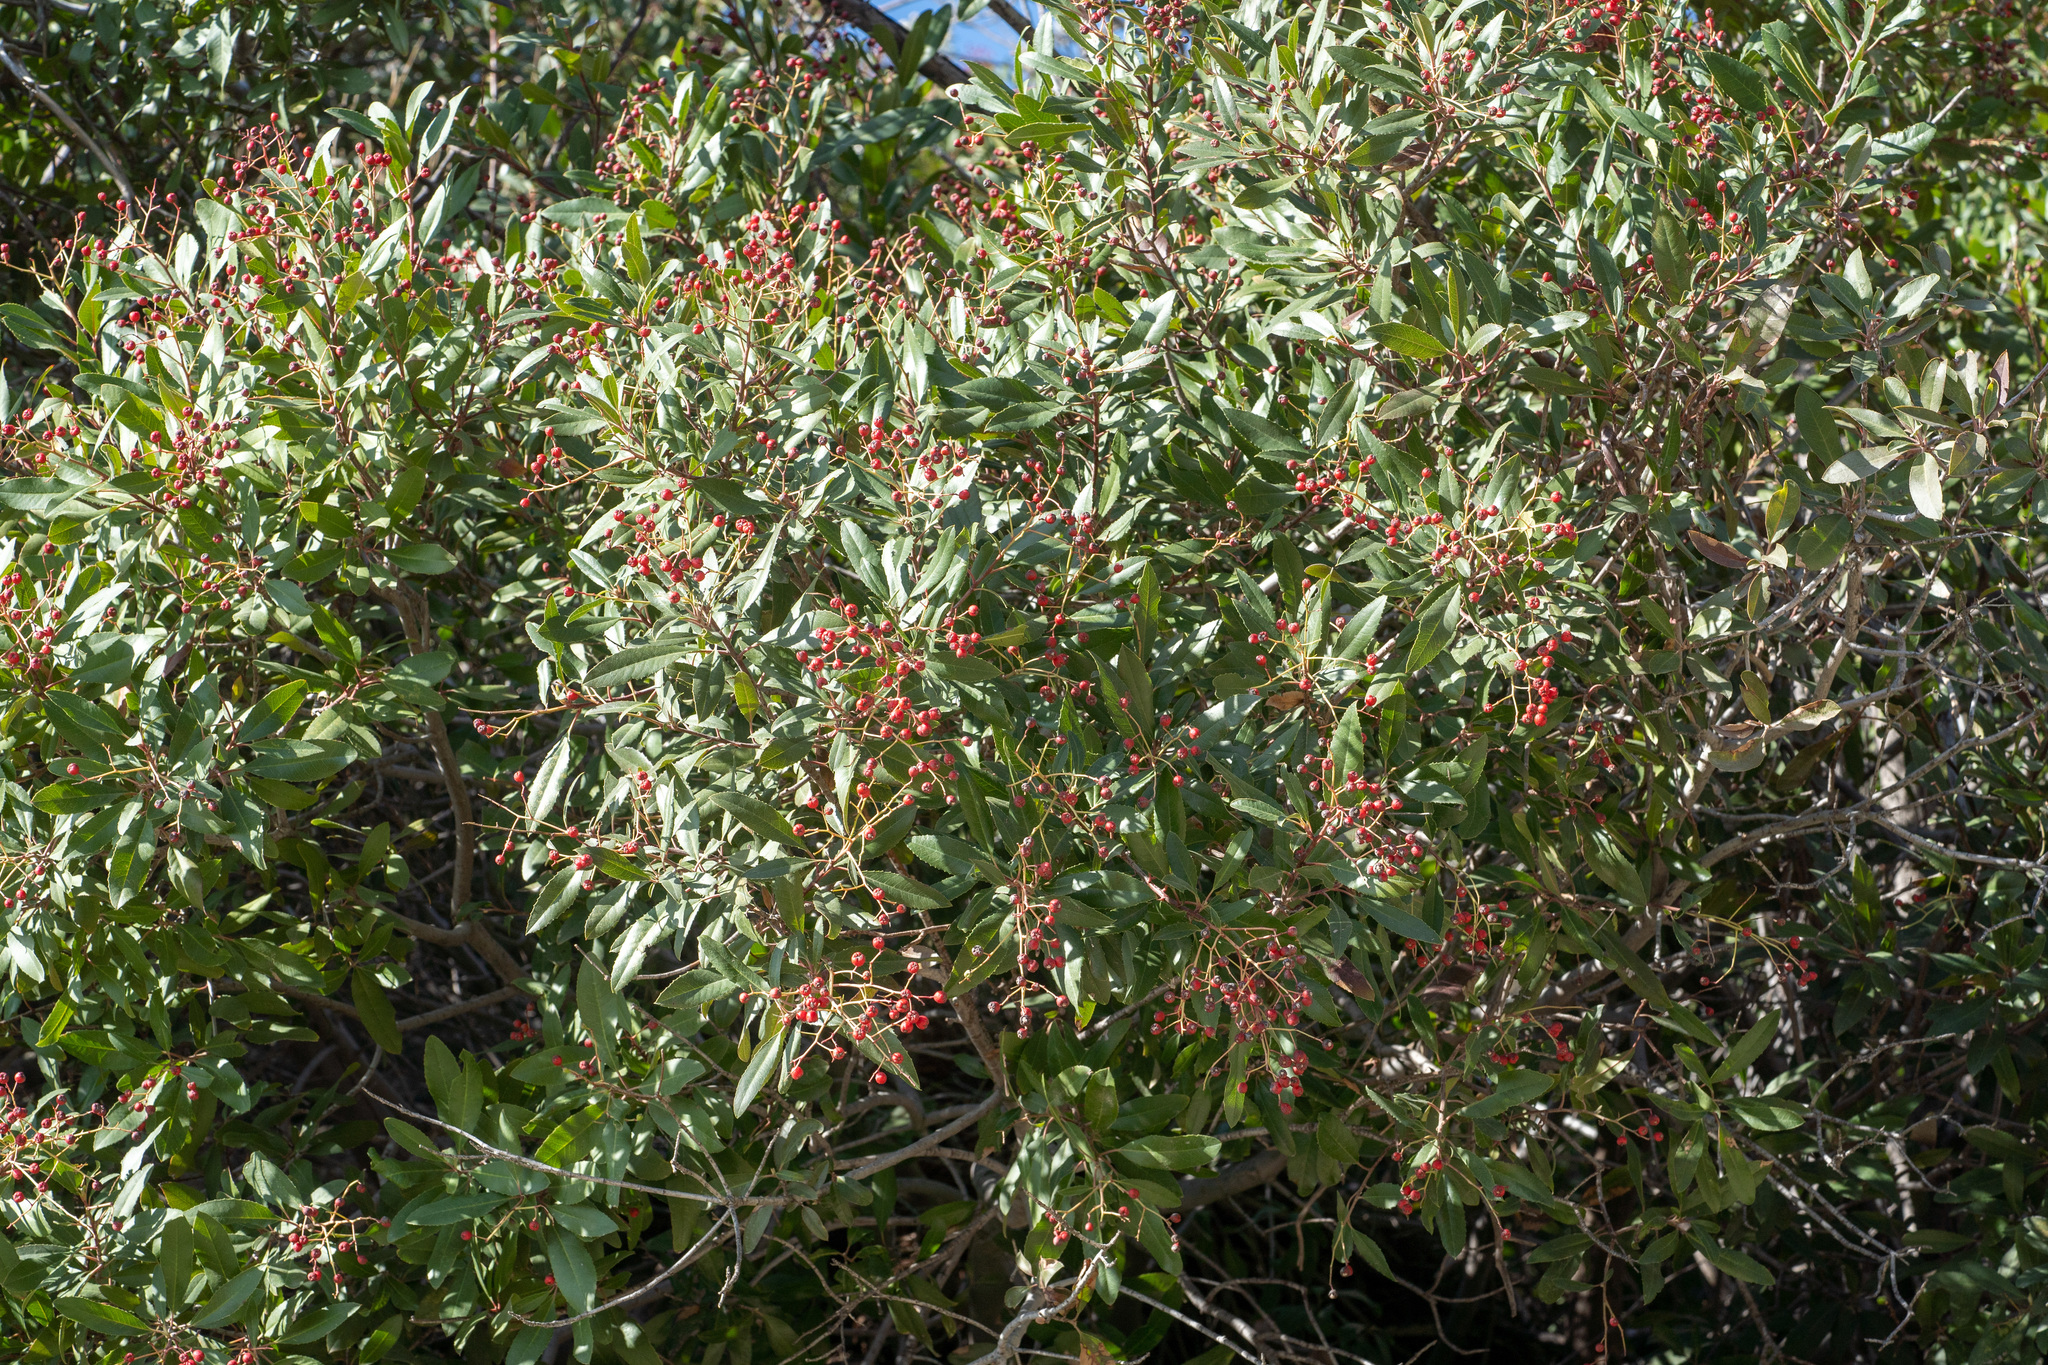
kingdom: Plantae
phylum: Tracheophyta
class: Magnoliopsida
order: Rosales
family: Rosaceae
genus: Heteromeles
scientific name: Heteromeles arbutifolia
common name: California-holly
